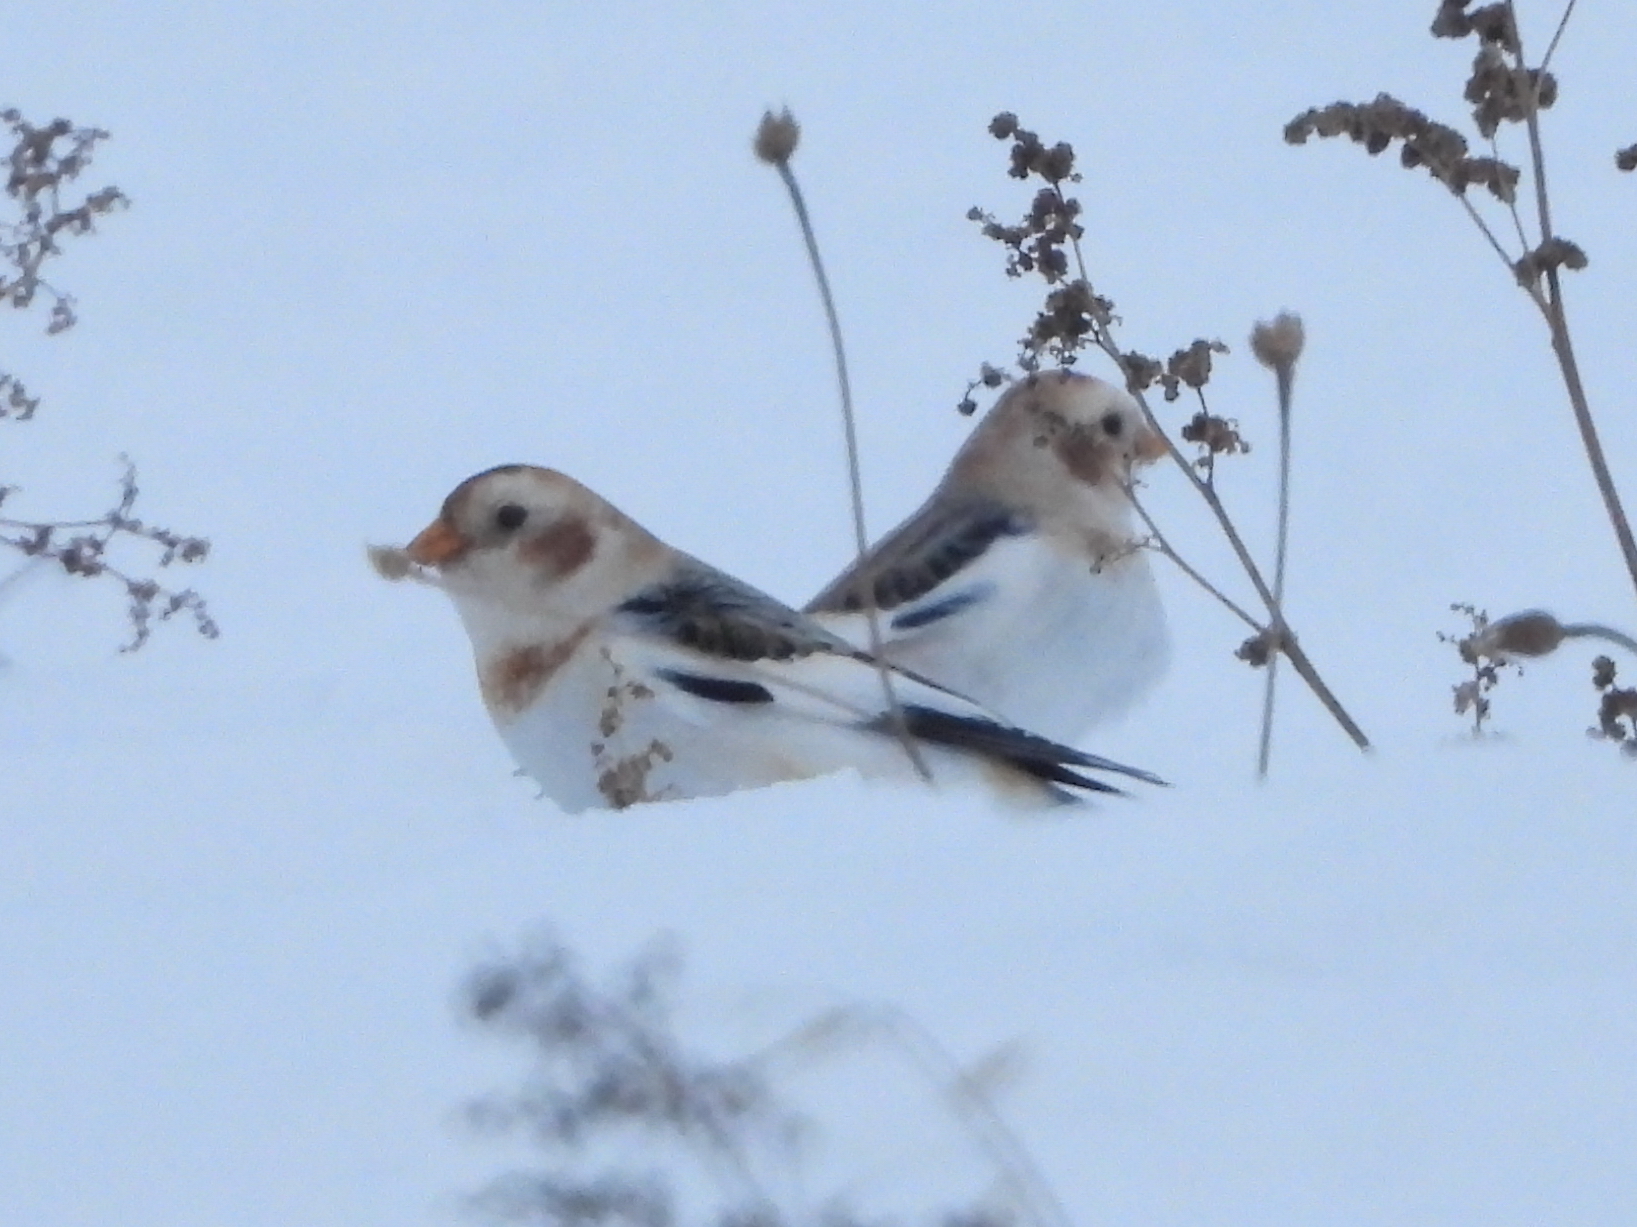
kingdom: Animalia
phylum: Chordata
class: Aves
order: Passeriformes
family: Calcariidae
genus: Plectrophenax
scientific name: Plectrophenax nivalis
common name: Snow bunting
